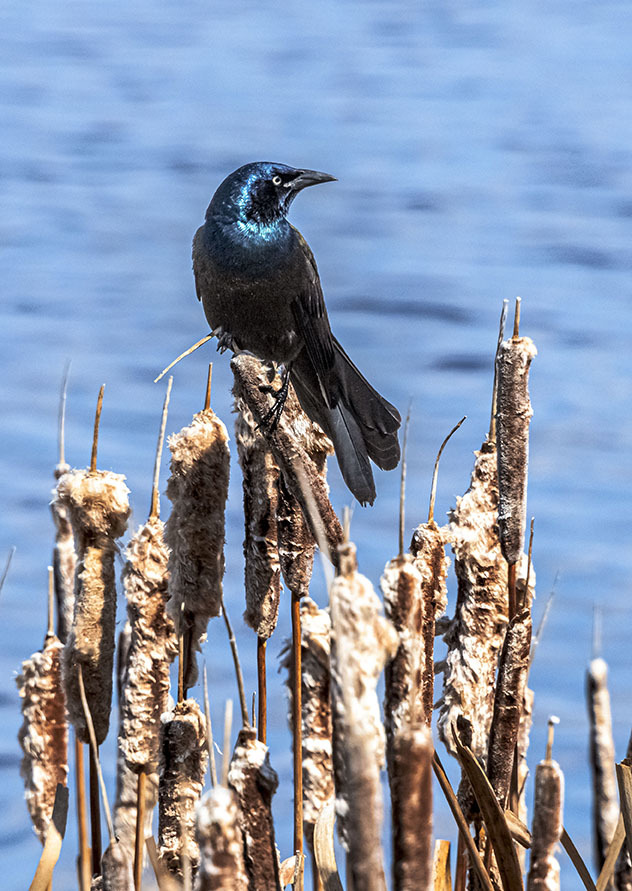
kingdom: Animalia
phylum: Chordata
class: Aves
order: Passeriformes
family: Icteridae
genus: Quiscalus
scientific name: Quiscalus quiscula
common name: Common grackle
